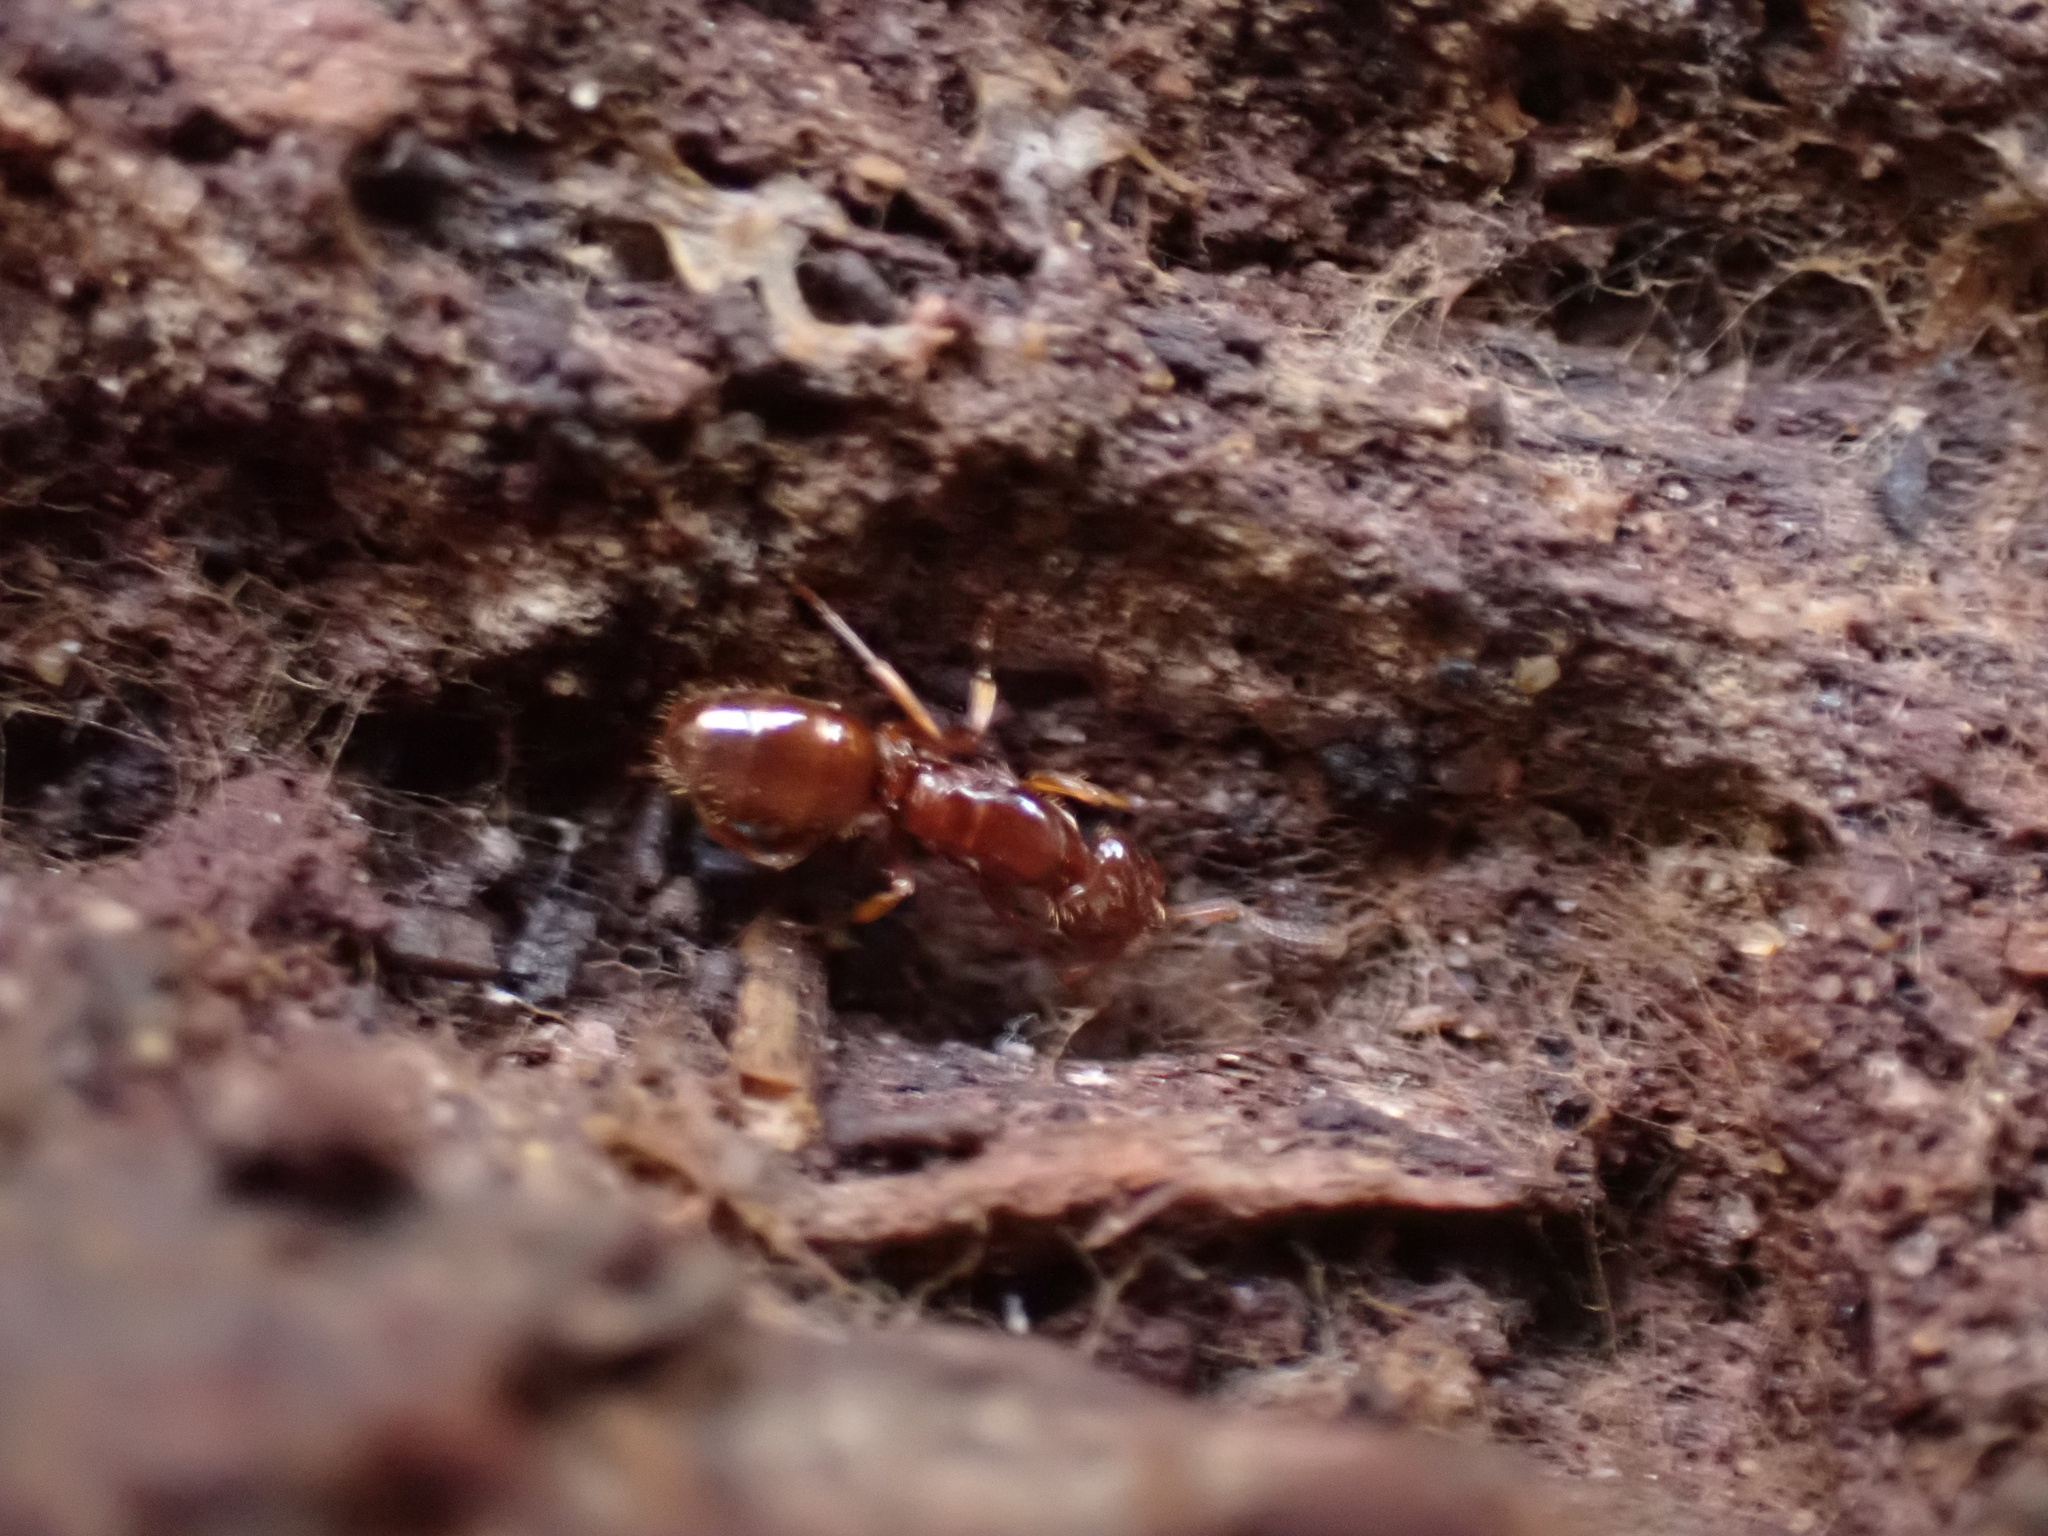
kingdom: Animalia
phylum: Arthropoda
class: Insecta
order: Hymenoptera
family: Formicidae
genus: Lasius
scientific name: Lasius claviger
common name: Common citronella ant
